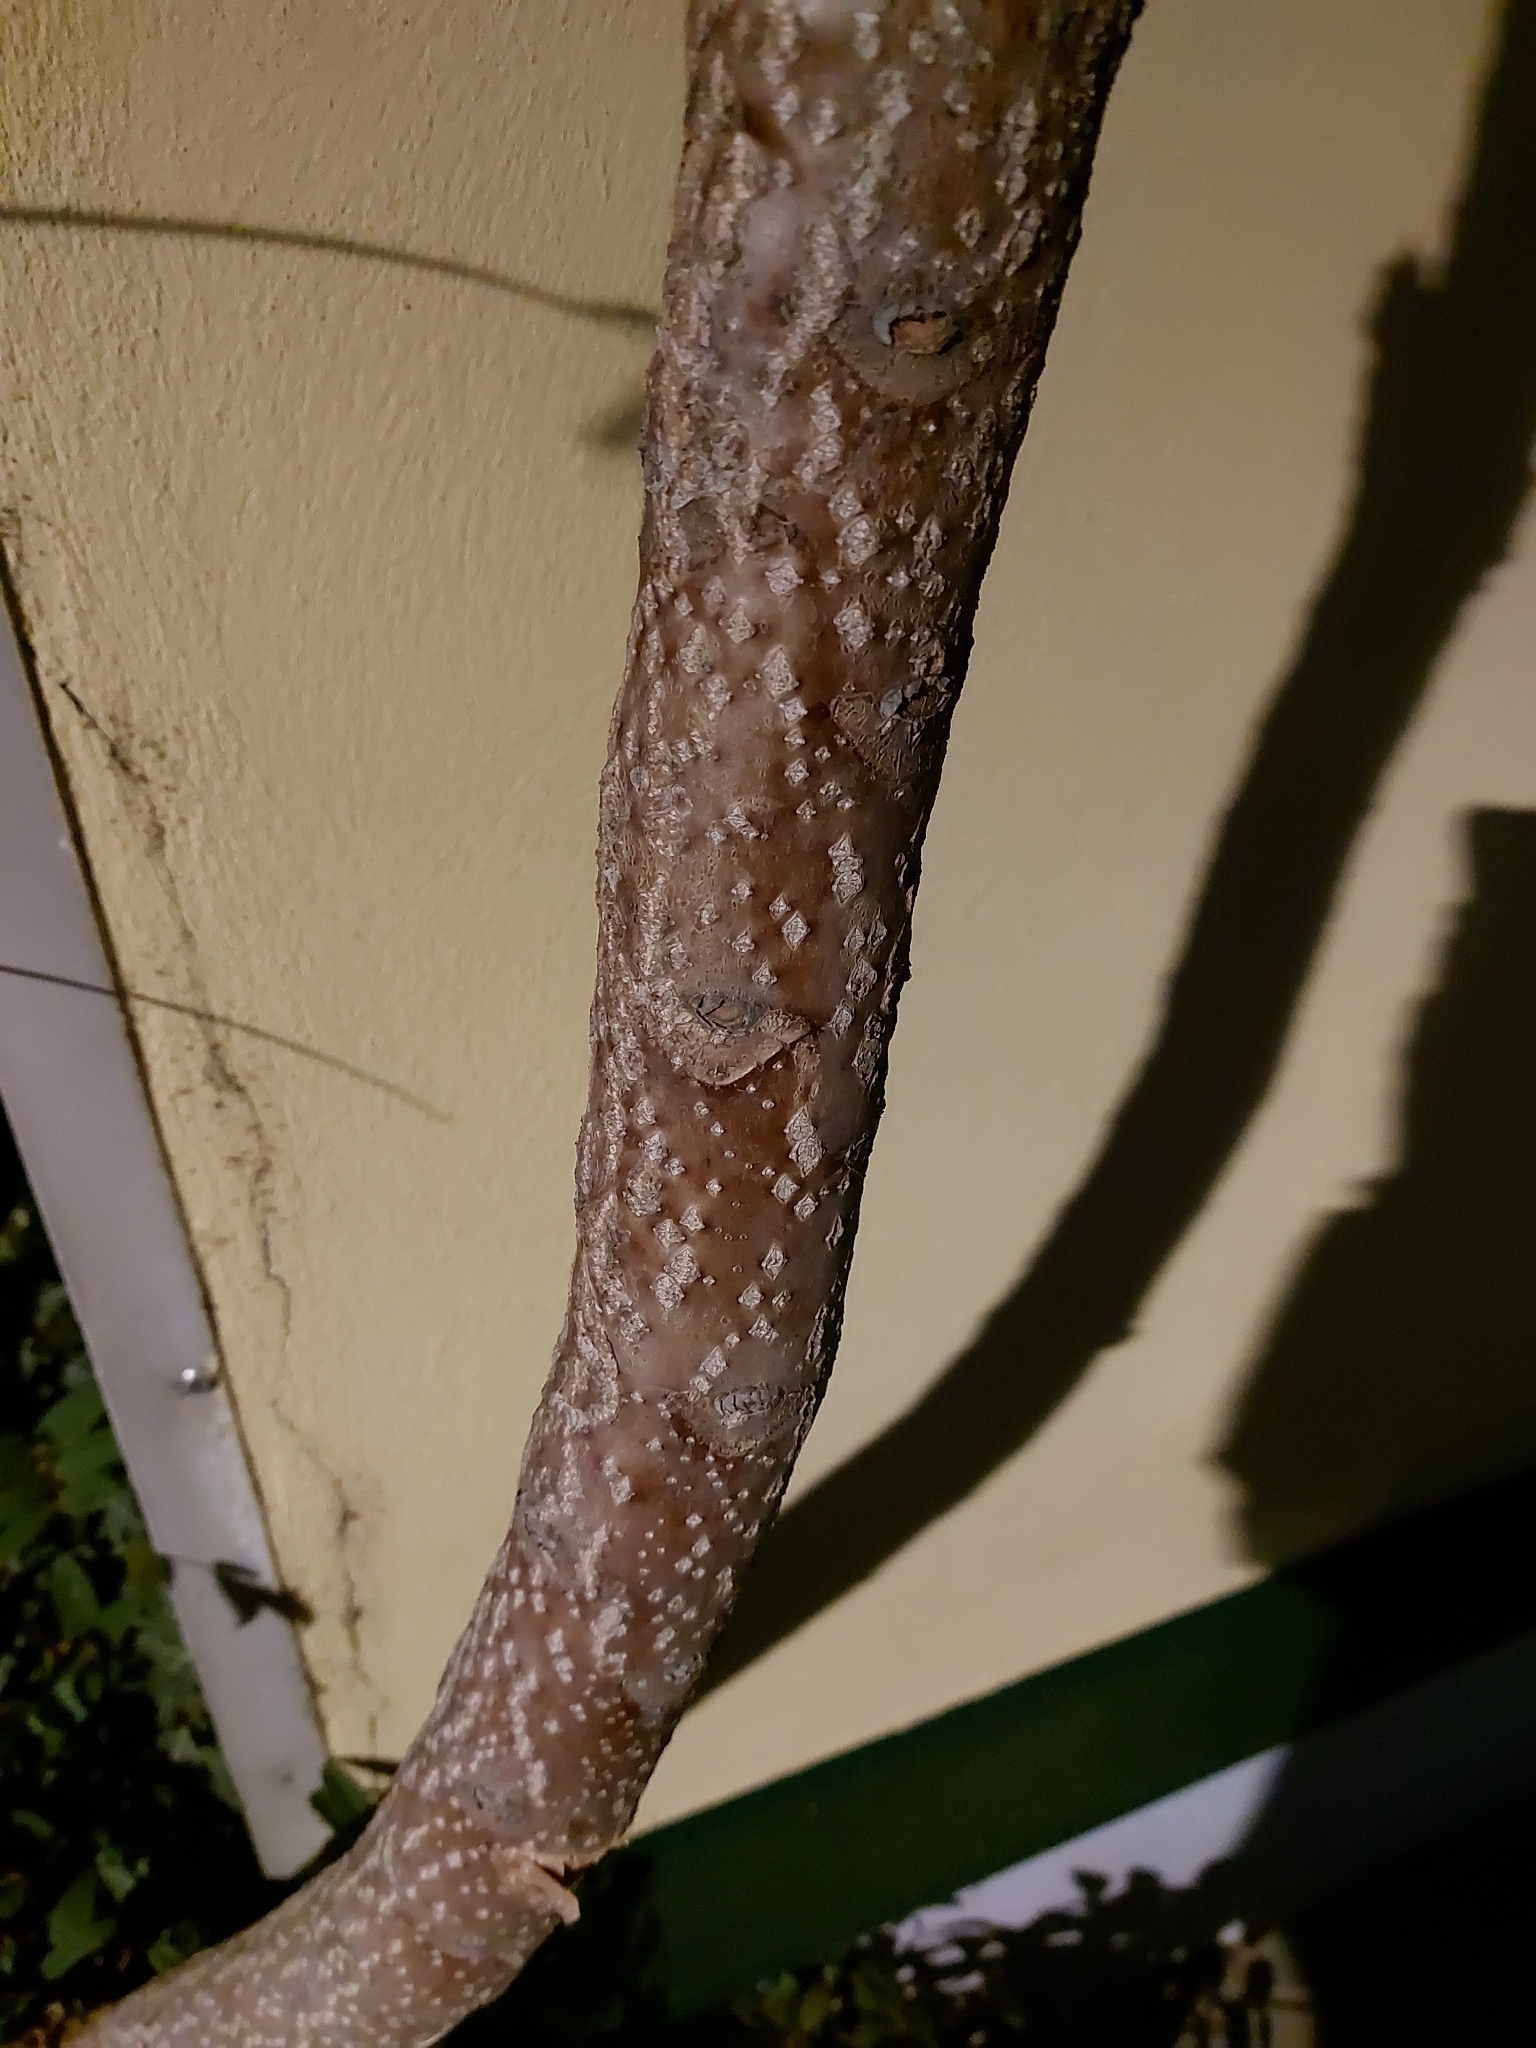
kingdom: Plantae
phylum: Tracheophyta
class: Magnoliopsida
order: Sapindales
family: Simaroubaceae
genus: Ailanthus
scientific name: Ailanthus altissima
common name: Tree-of-heaven
